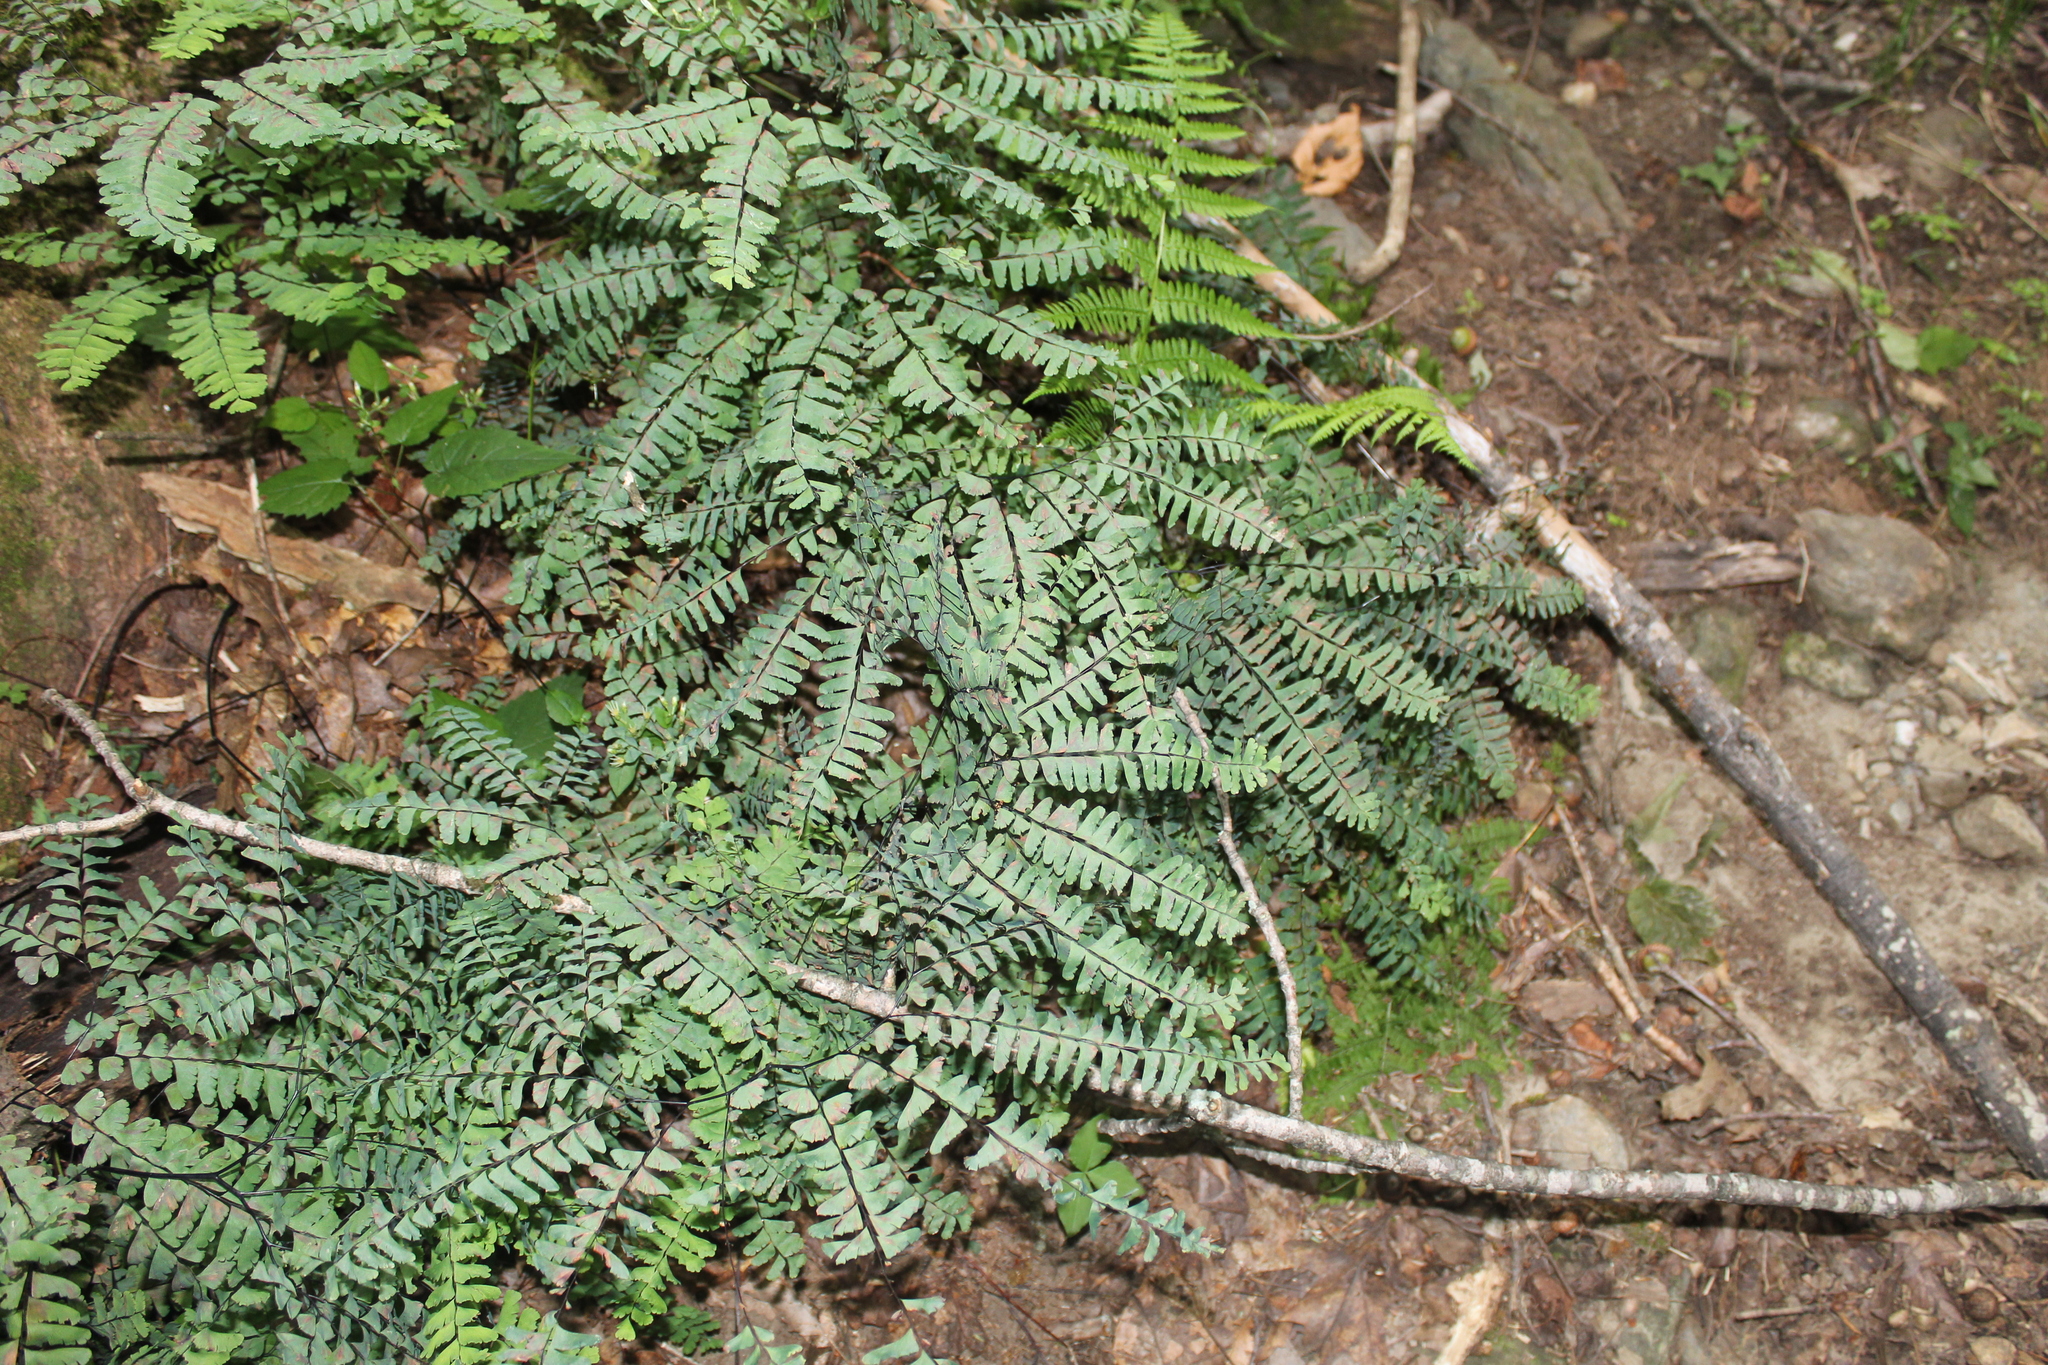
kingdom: Plantae
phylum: Tracheophyta
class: Polypodiopsida
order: Polypodiales
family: Pteridaceae
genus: Adiantum
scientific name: Adiantum pedatum
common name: Five-finger fern
